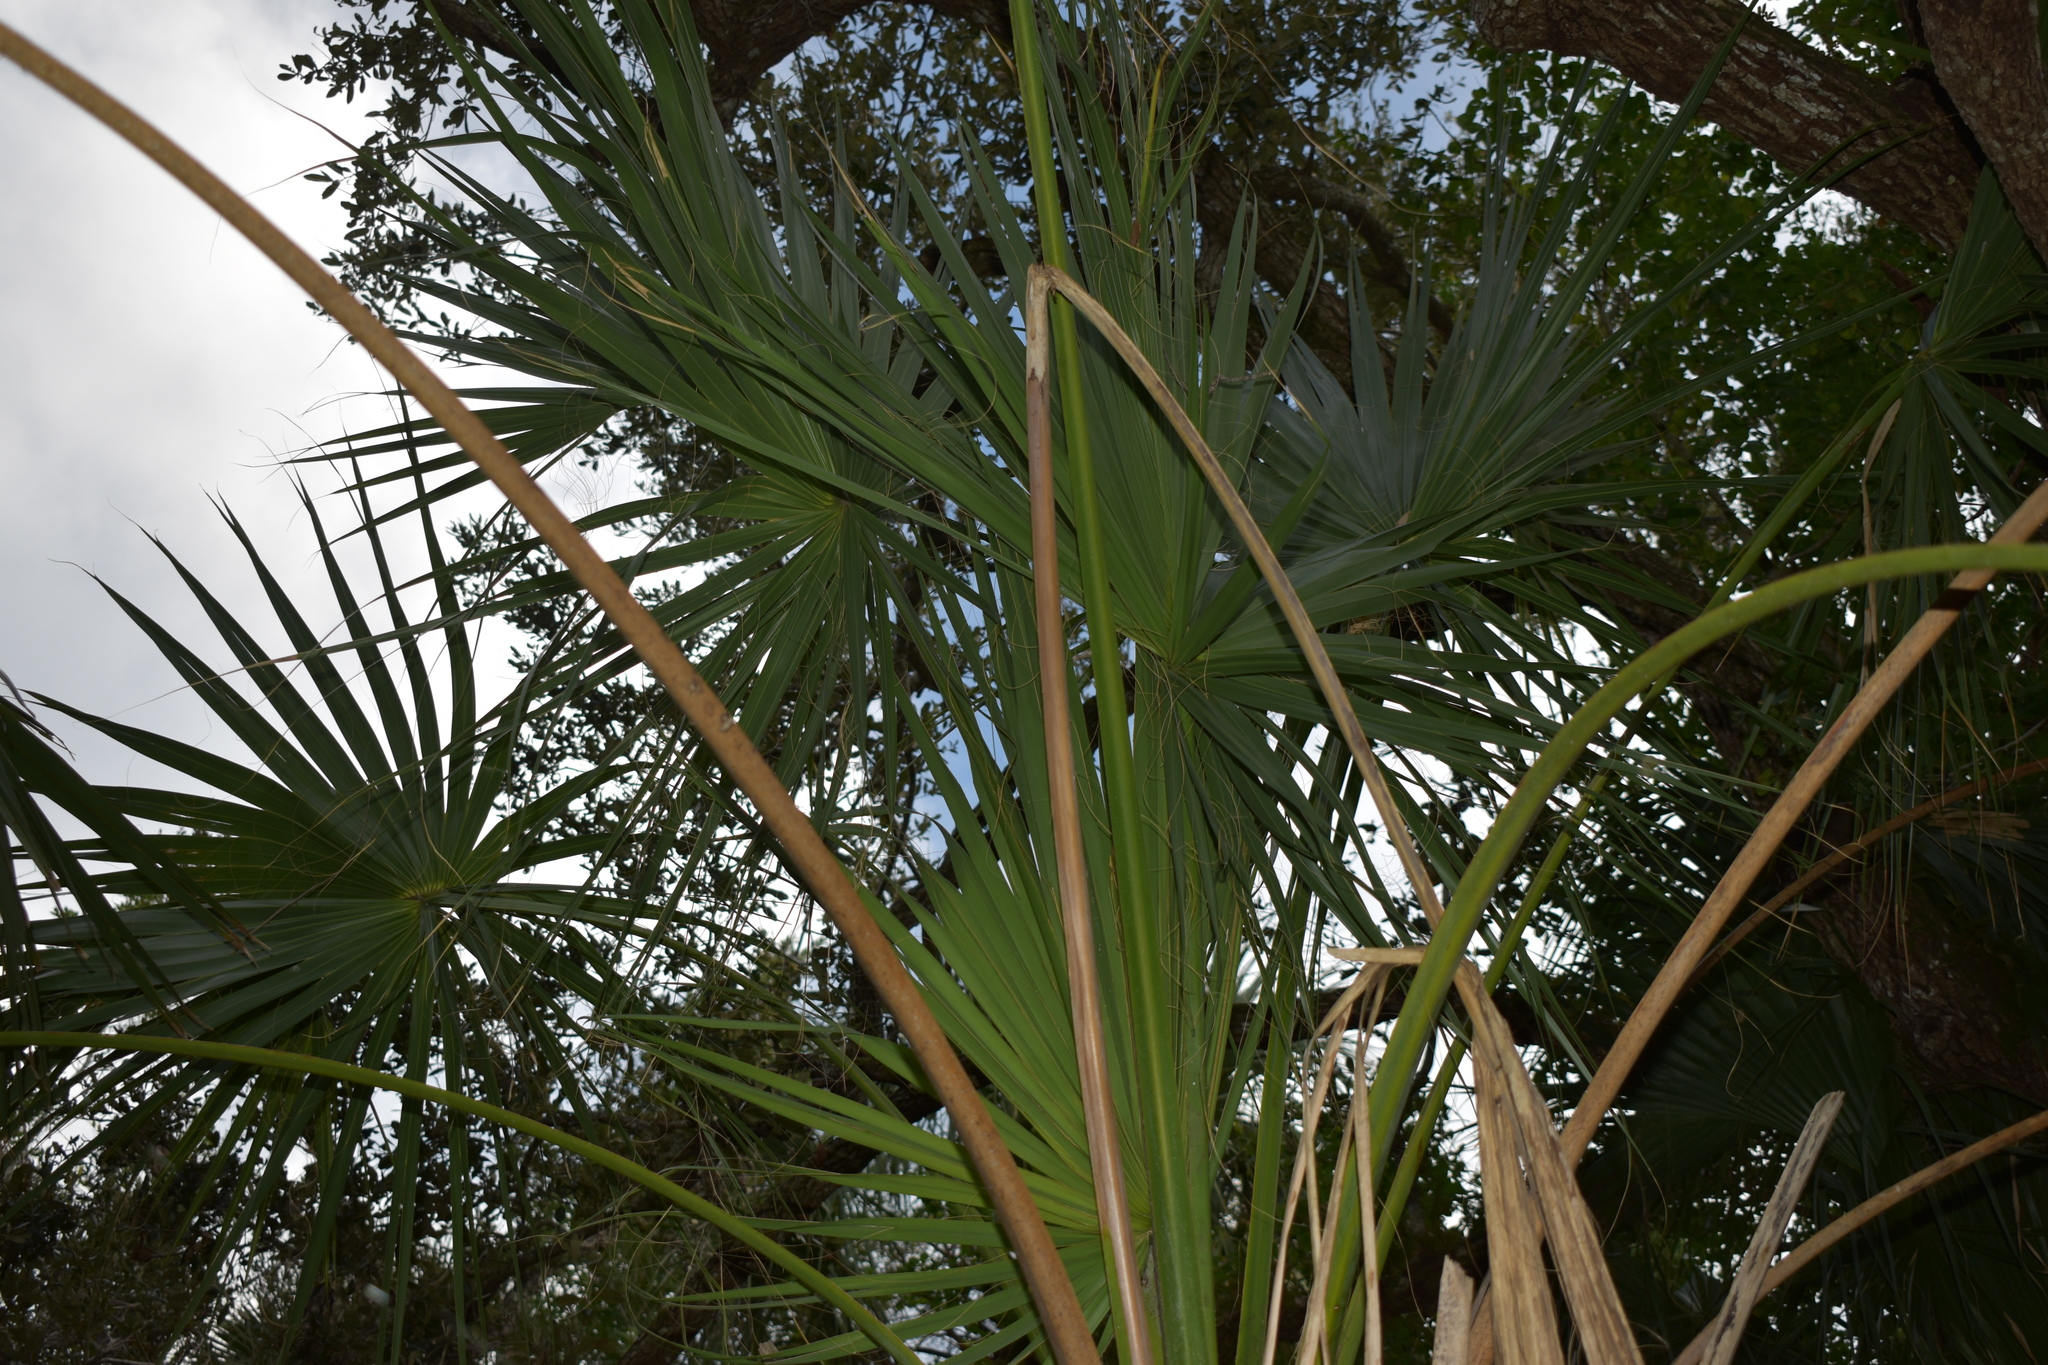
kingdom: Plantae
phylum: Tracheophyta
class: Liliopsida
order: Arecales
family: Arecaceae
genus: Sabal
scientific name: Sabal palmetto
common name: Blue palmetto
